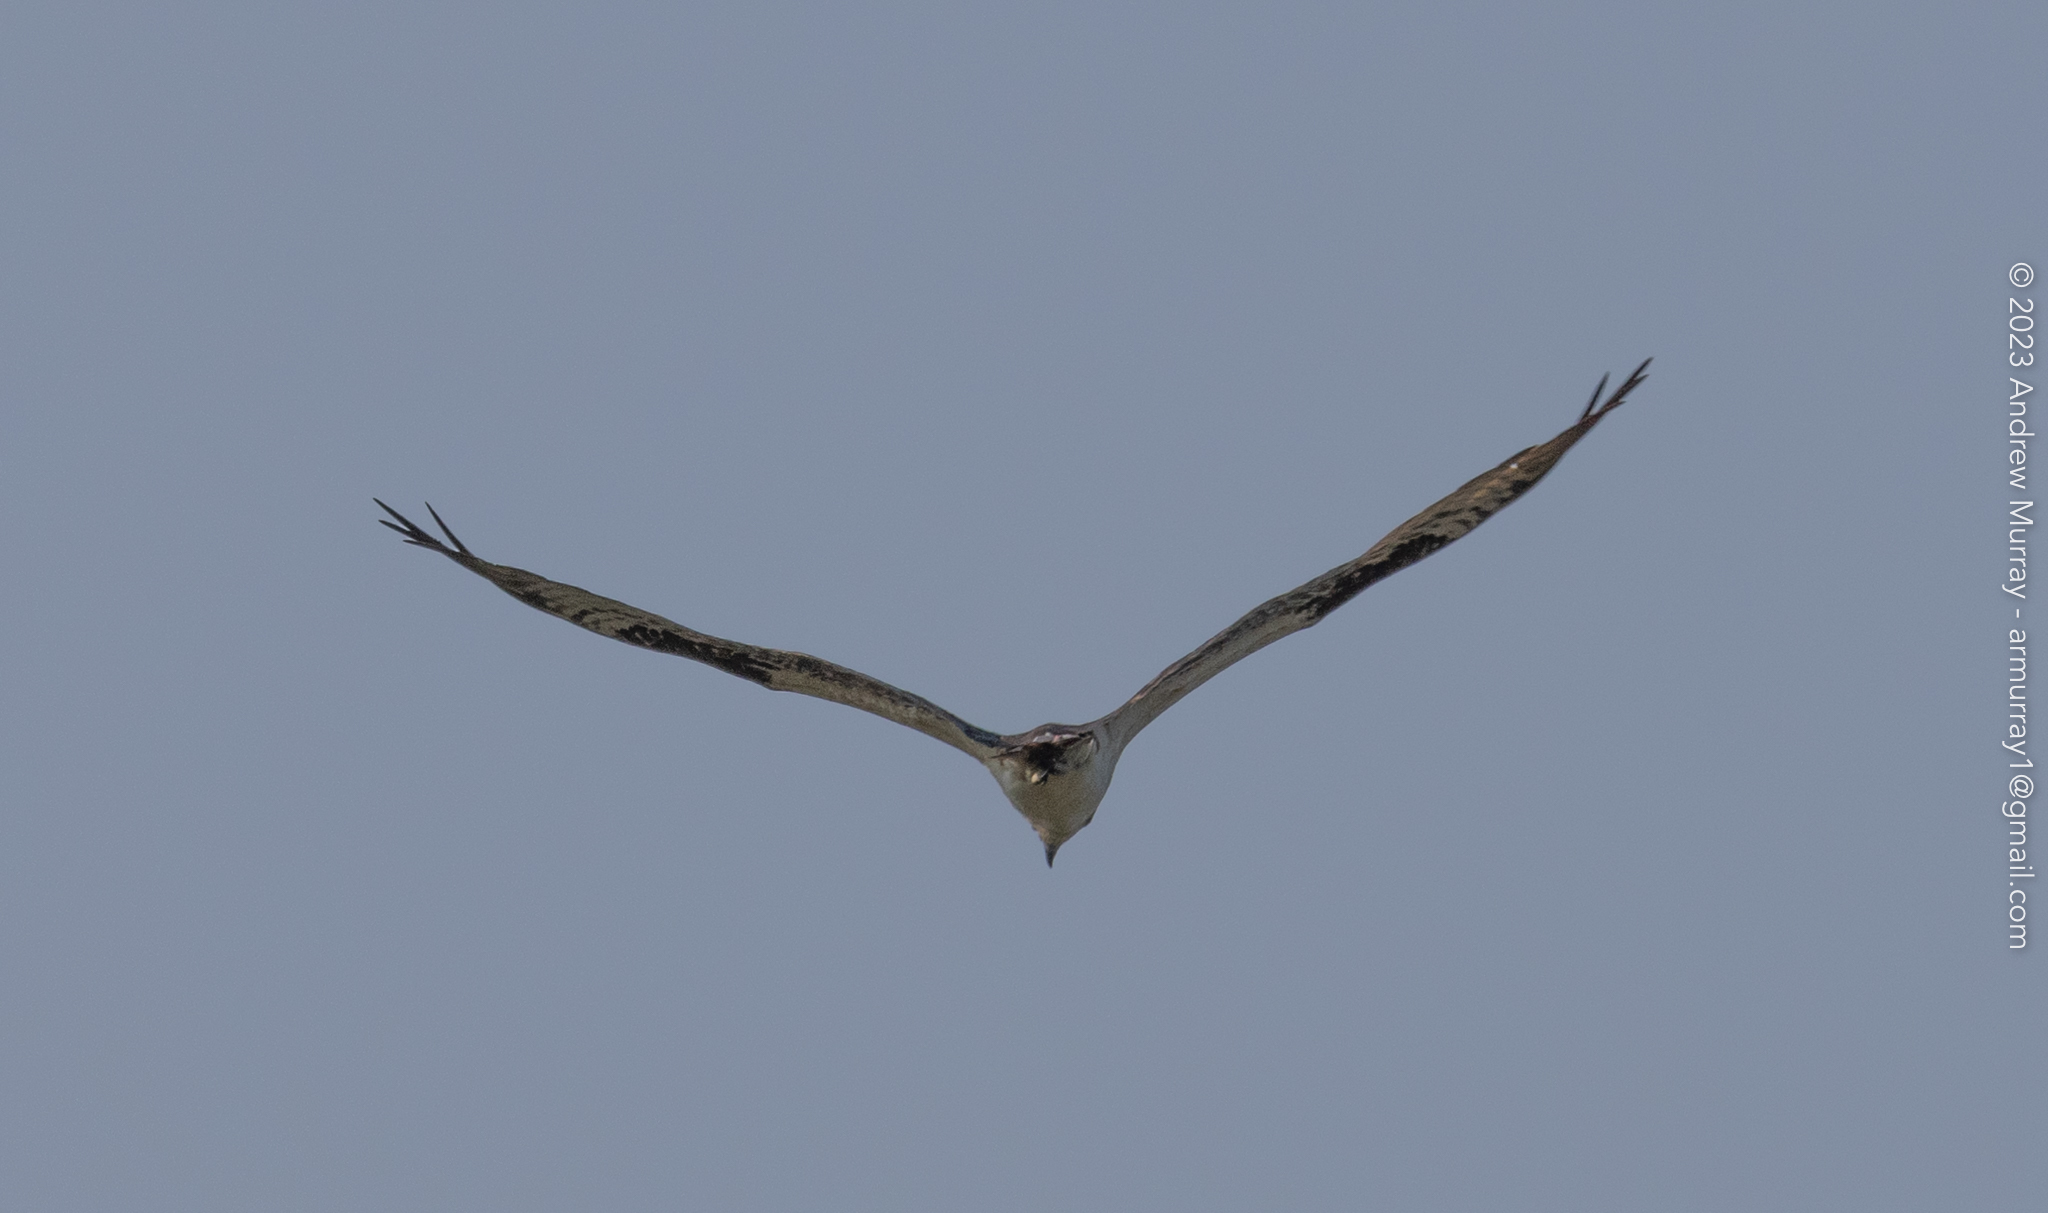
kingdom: Animalia
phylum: Chordata
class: Aves
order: Accipitriformes
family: Pandionidae
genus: Pandion
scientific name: Pandion haliaetus
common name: Osprey
